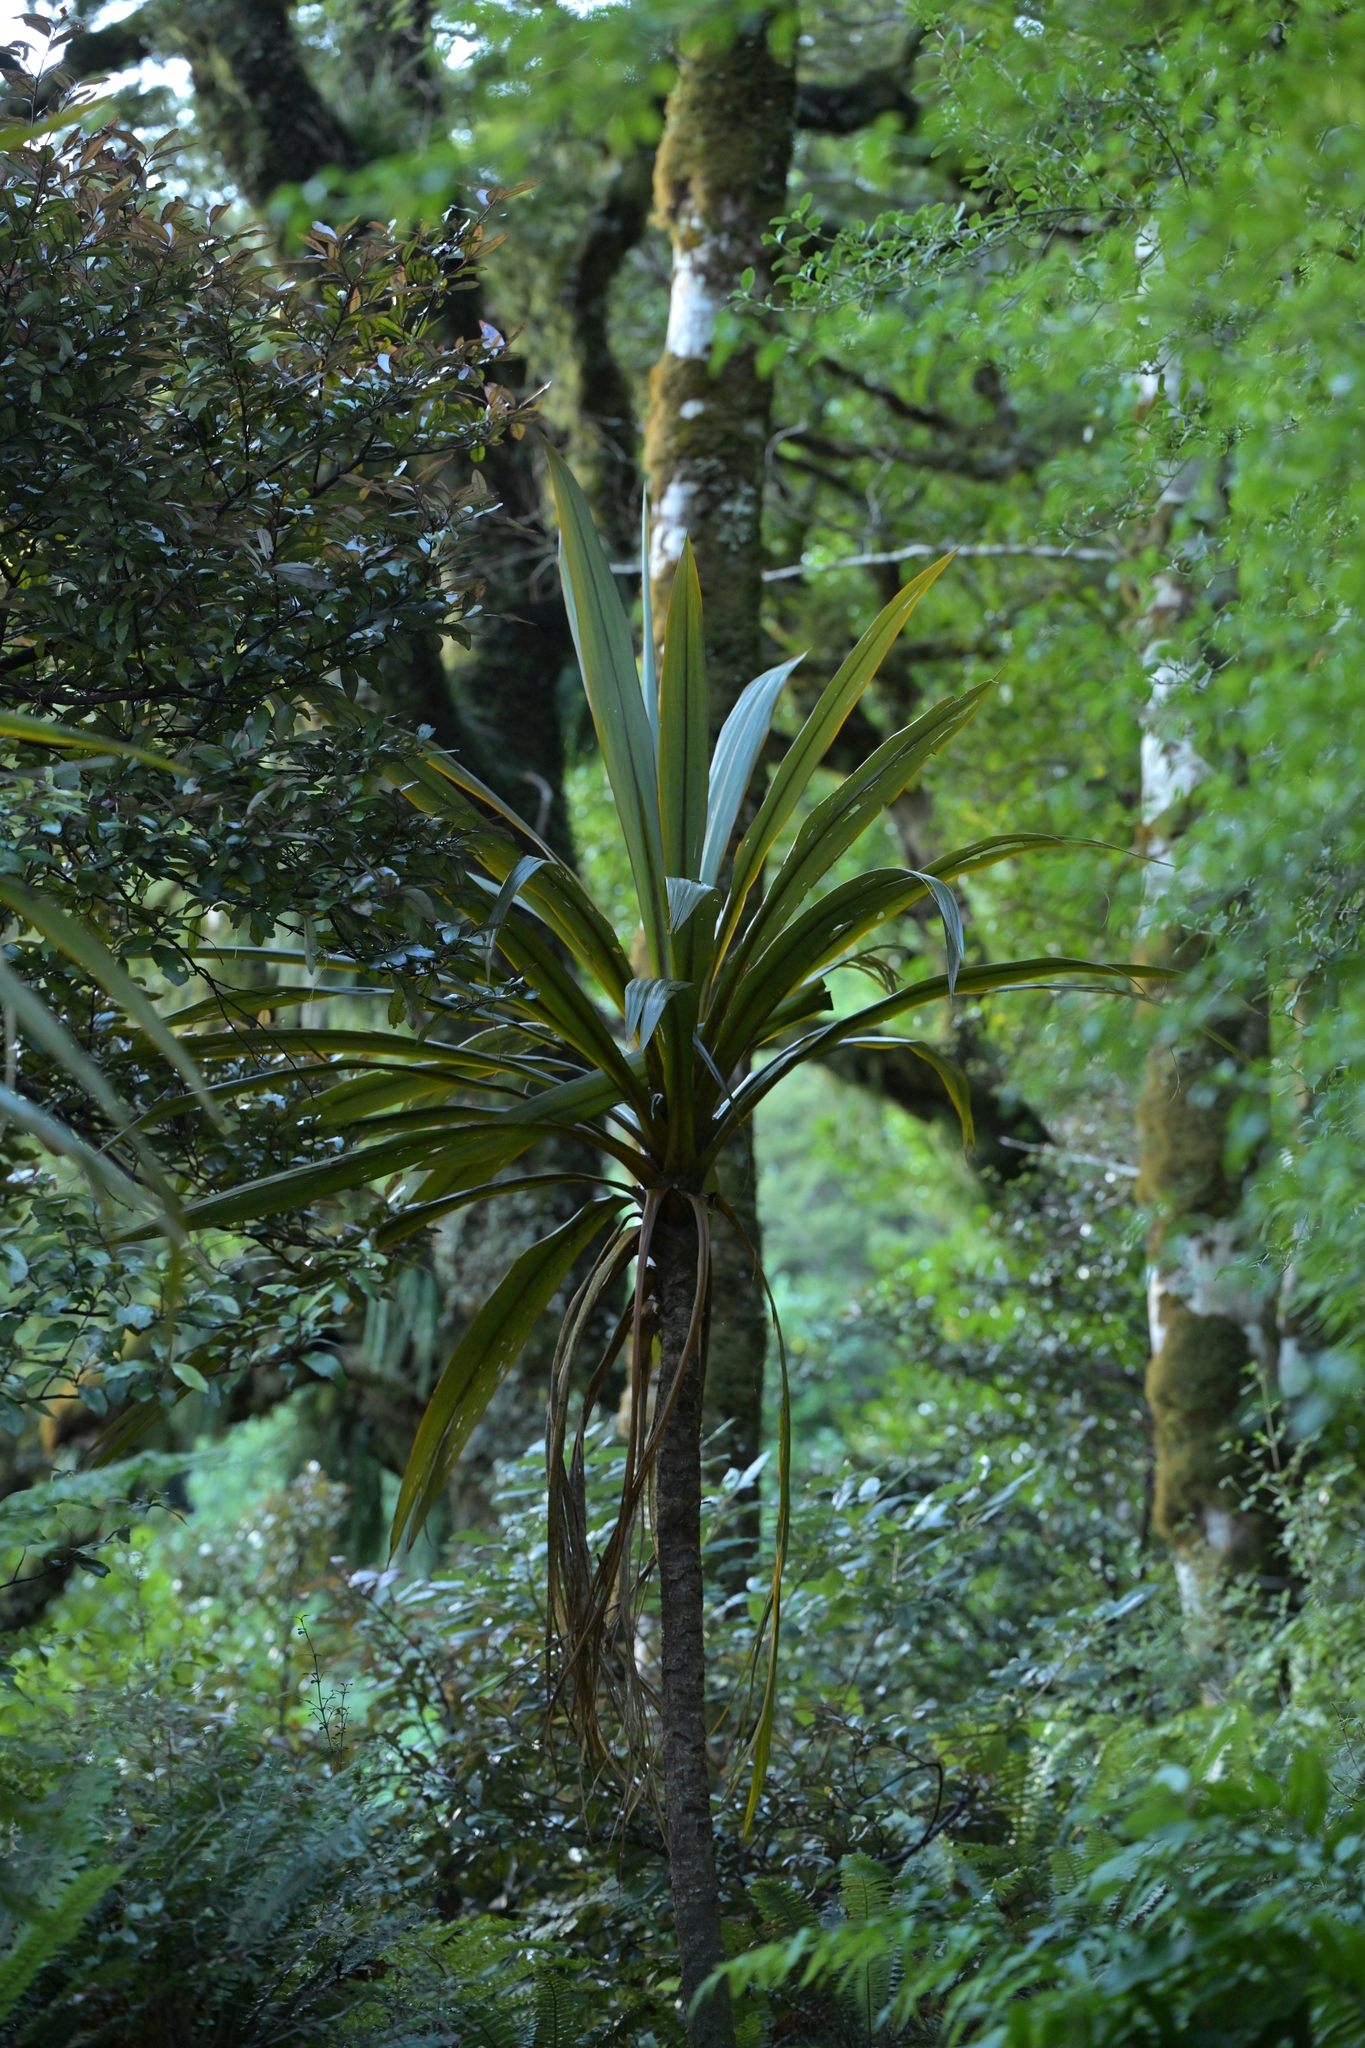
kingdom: Plantae
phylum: Tracheophyta
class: Liliopsida
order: Asparagales
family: Asparagaceae
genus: Cordyline
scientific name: Cordyline indivisa
